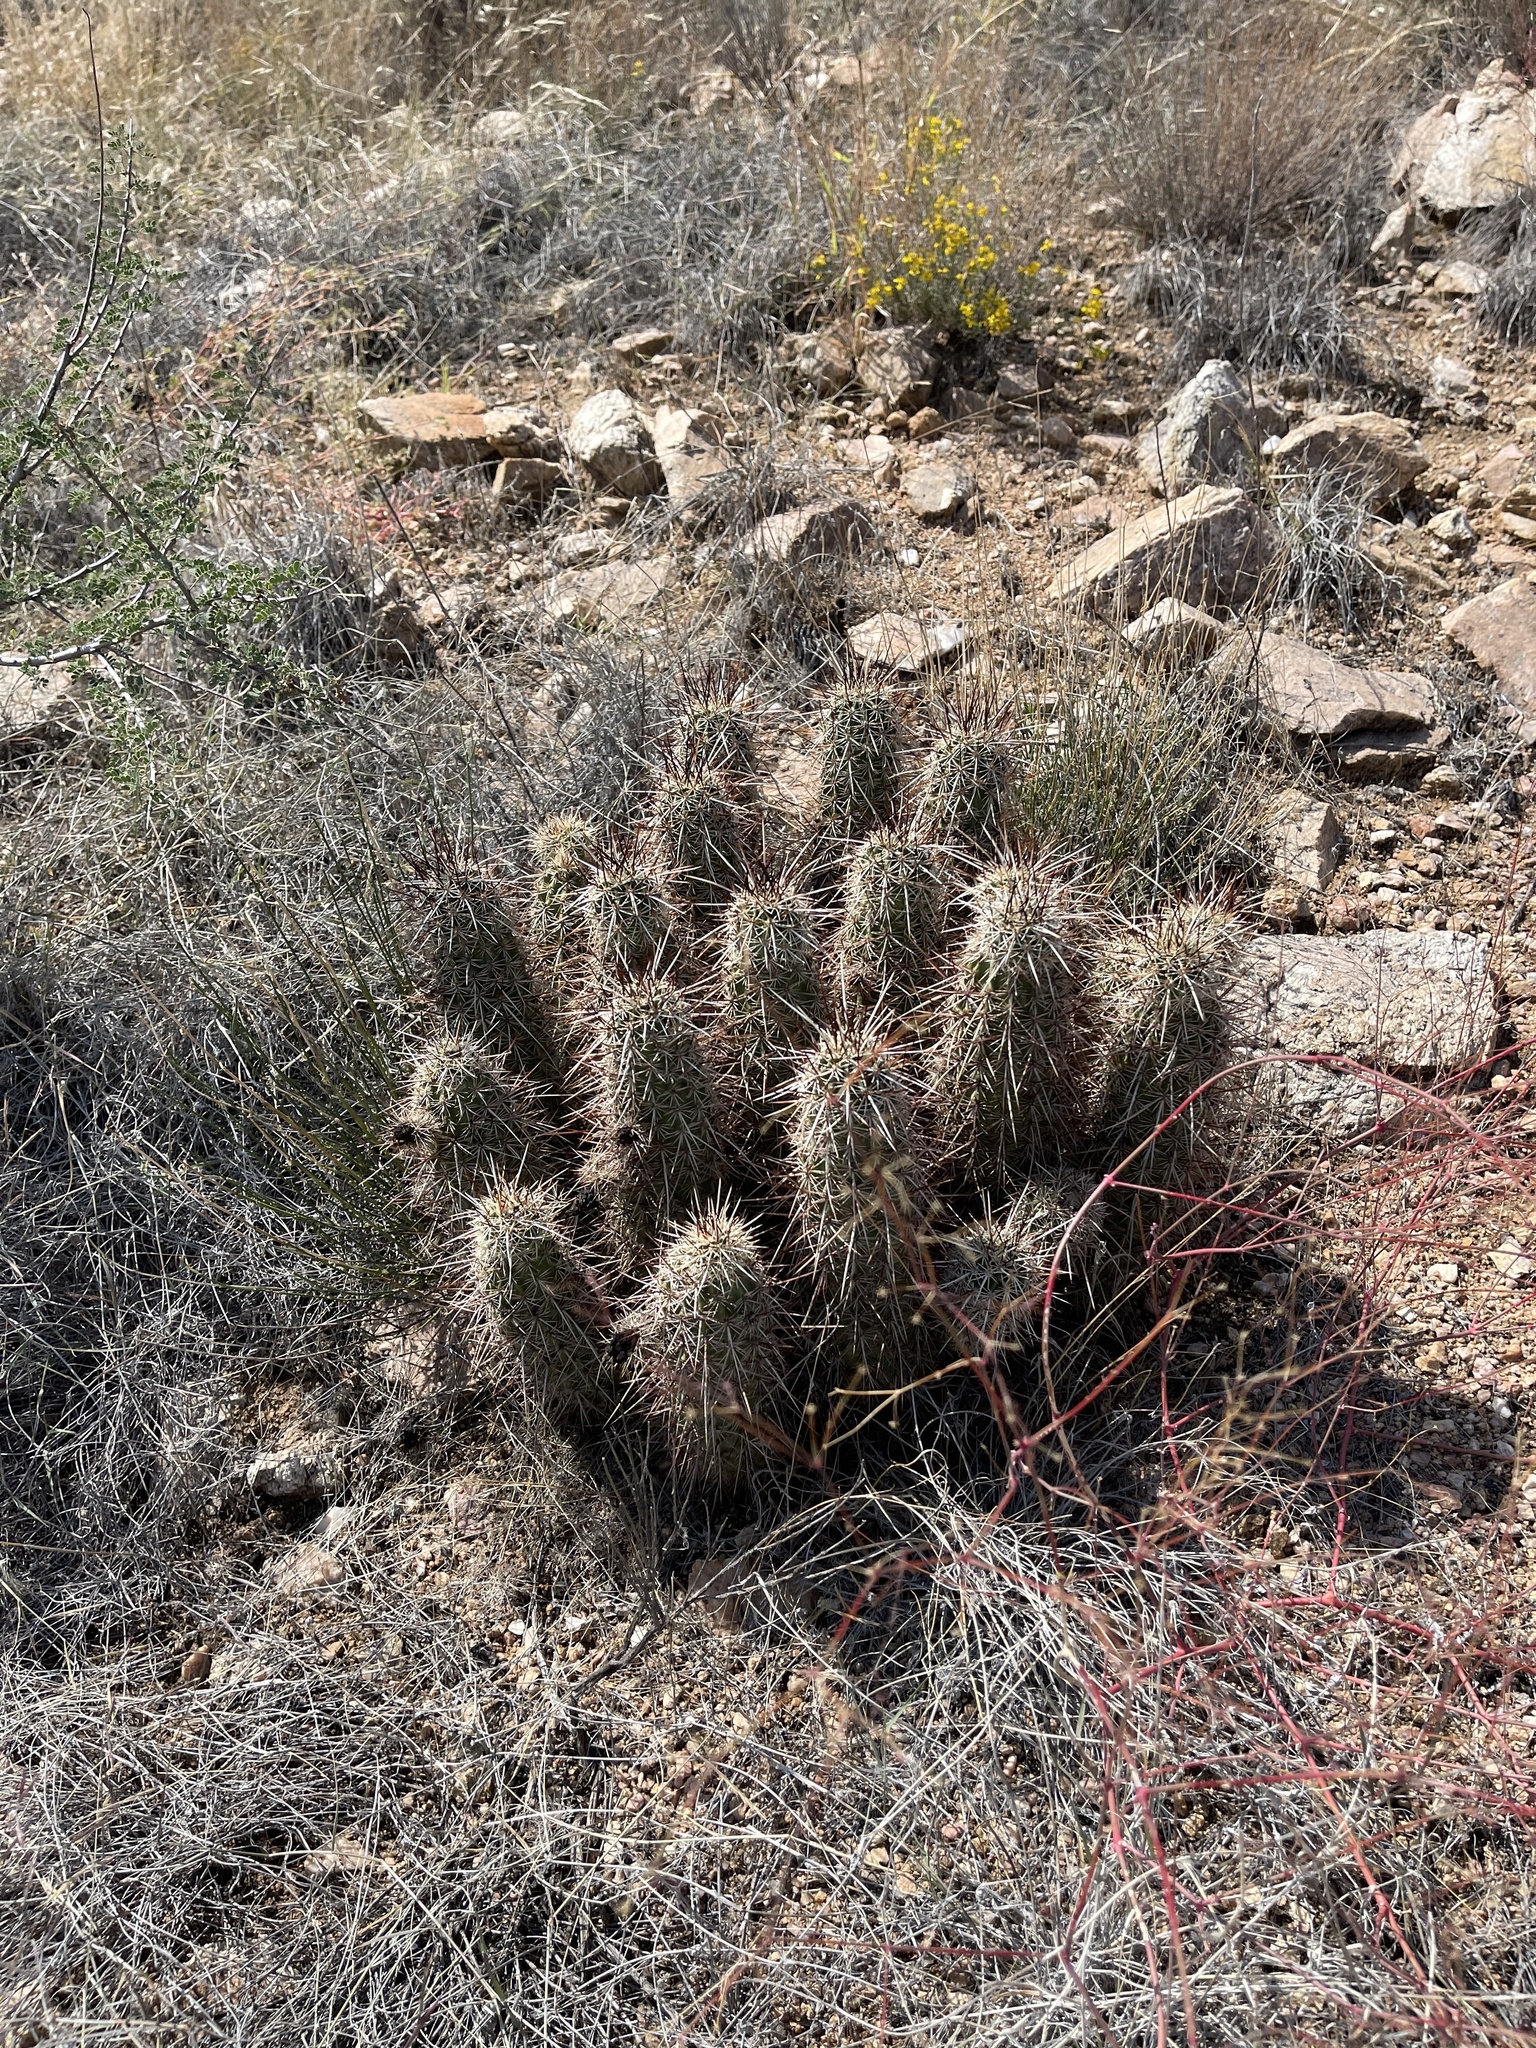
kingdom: Plantae
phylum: Tracheophyta
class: Magnoliopsida
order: Caryophyllales
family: Cactaceae
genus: Echinocereus
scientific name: Echinocereus engelmannii
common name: Engelmann's hedgehog cactus
